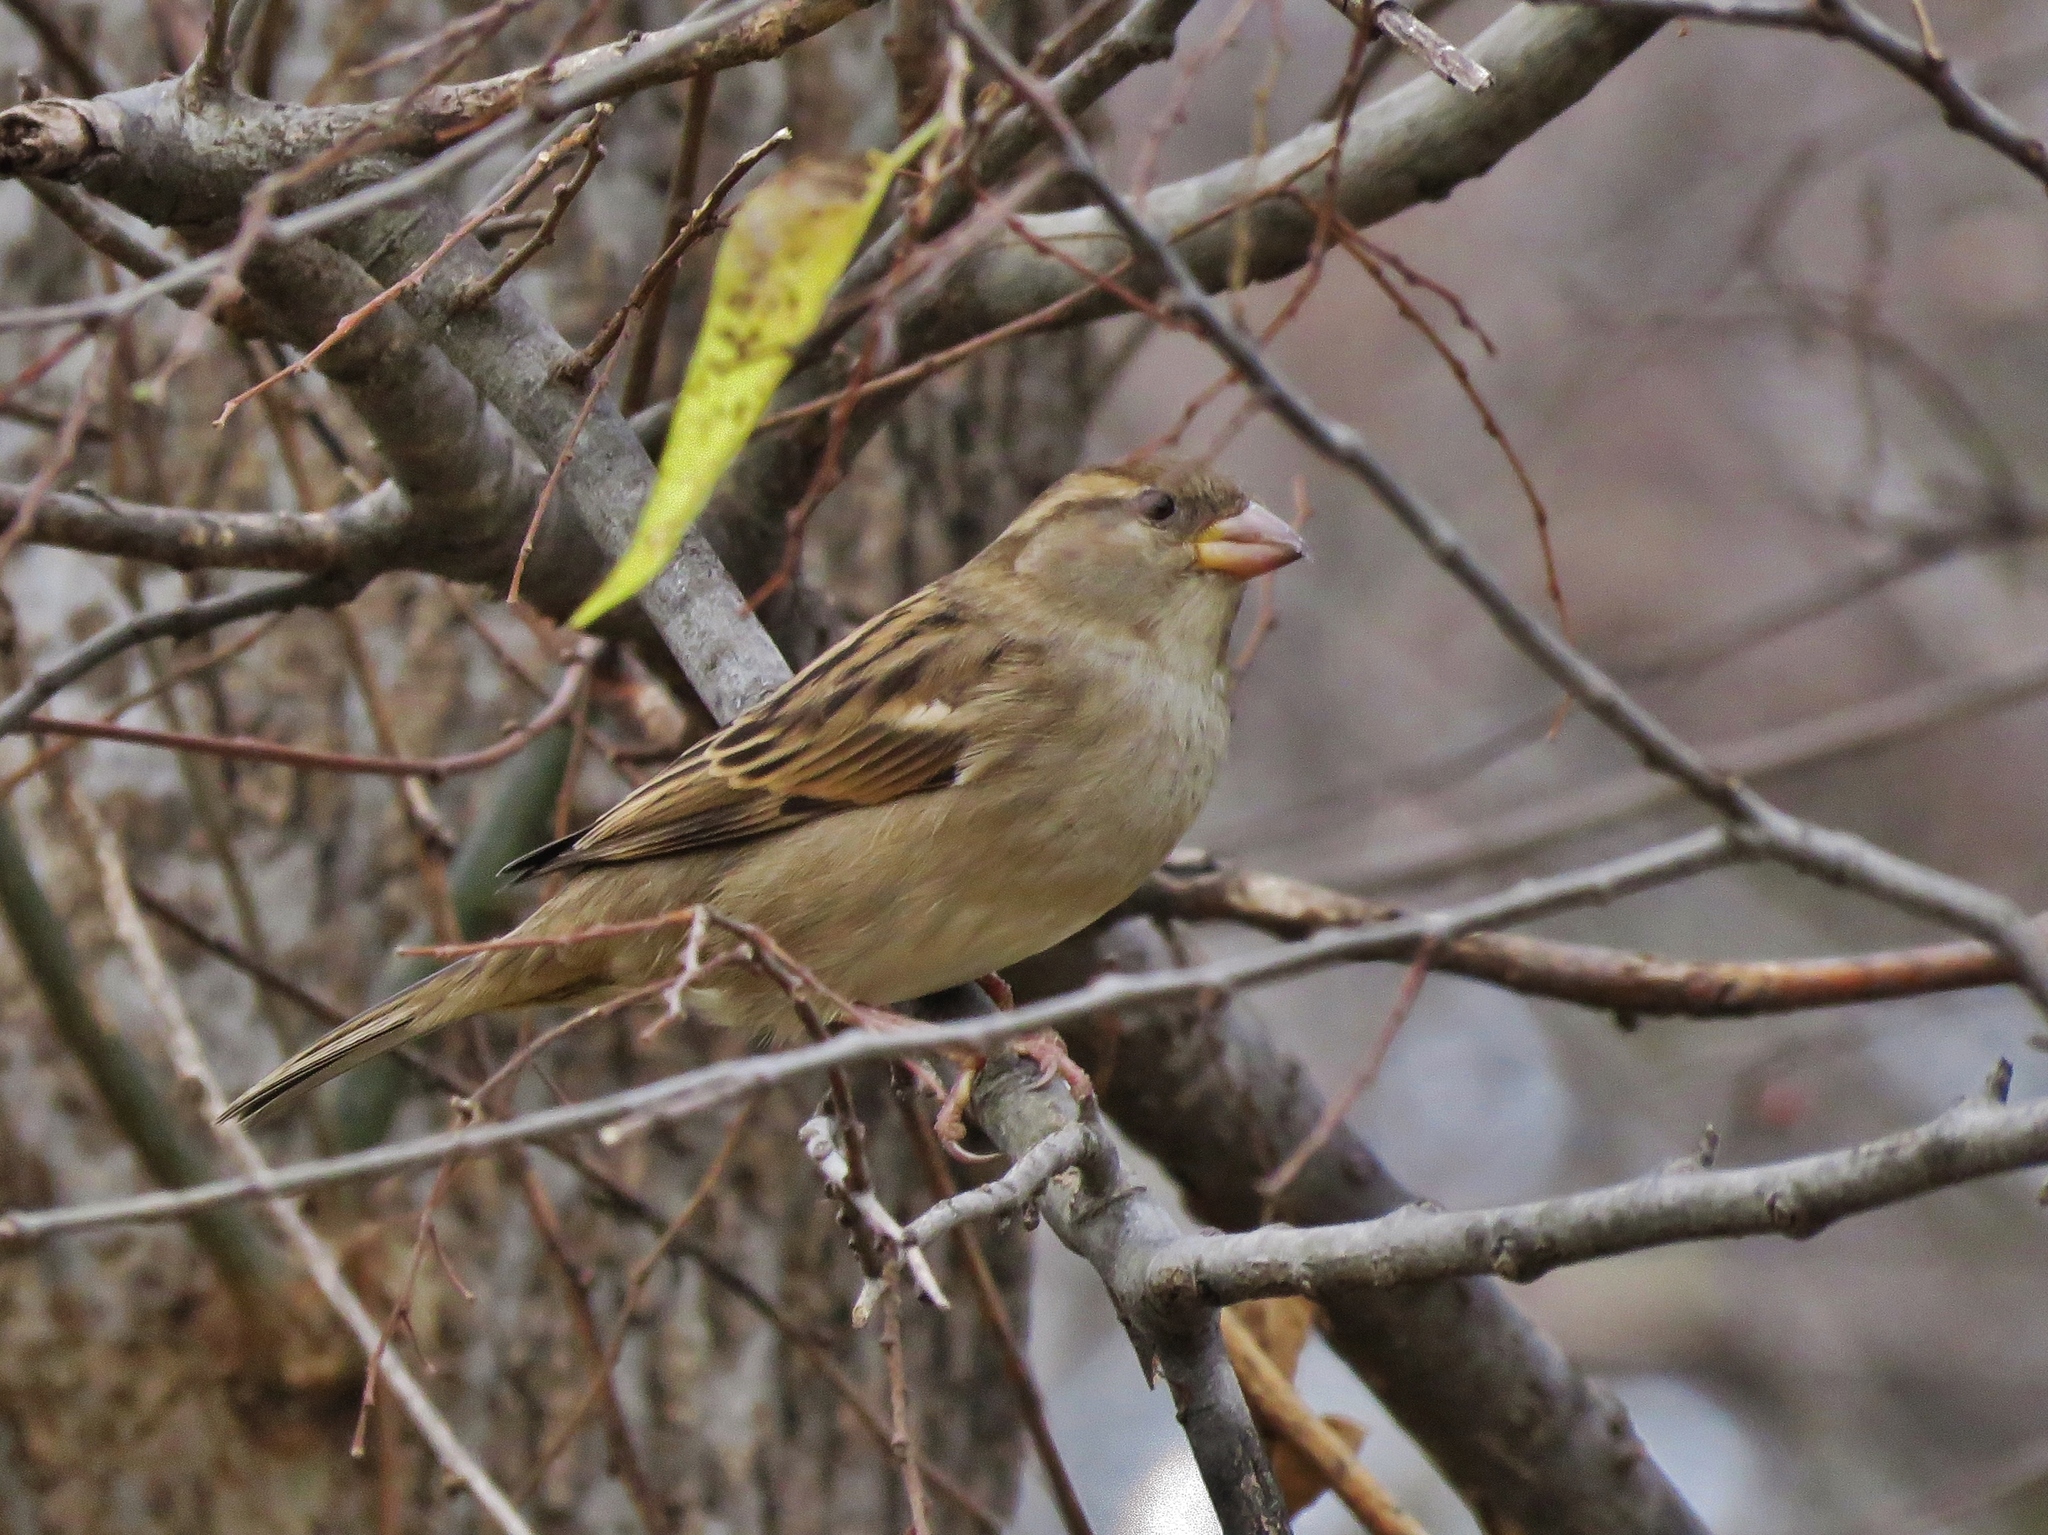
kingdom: Animalia
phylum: Chordata
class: Aves
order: Passeriformes
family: Passeridae
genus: Passer
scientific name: Passer domesticus
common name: House sparrow
